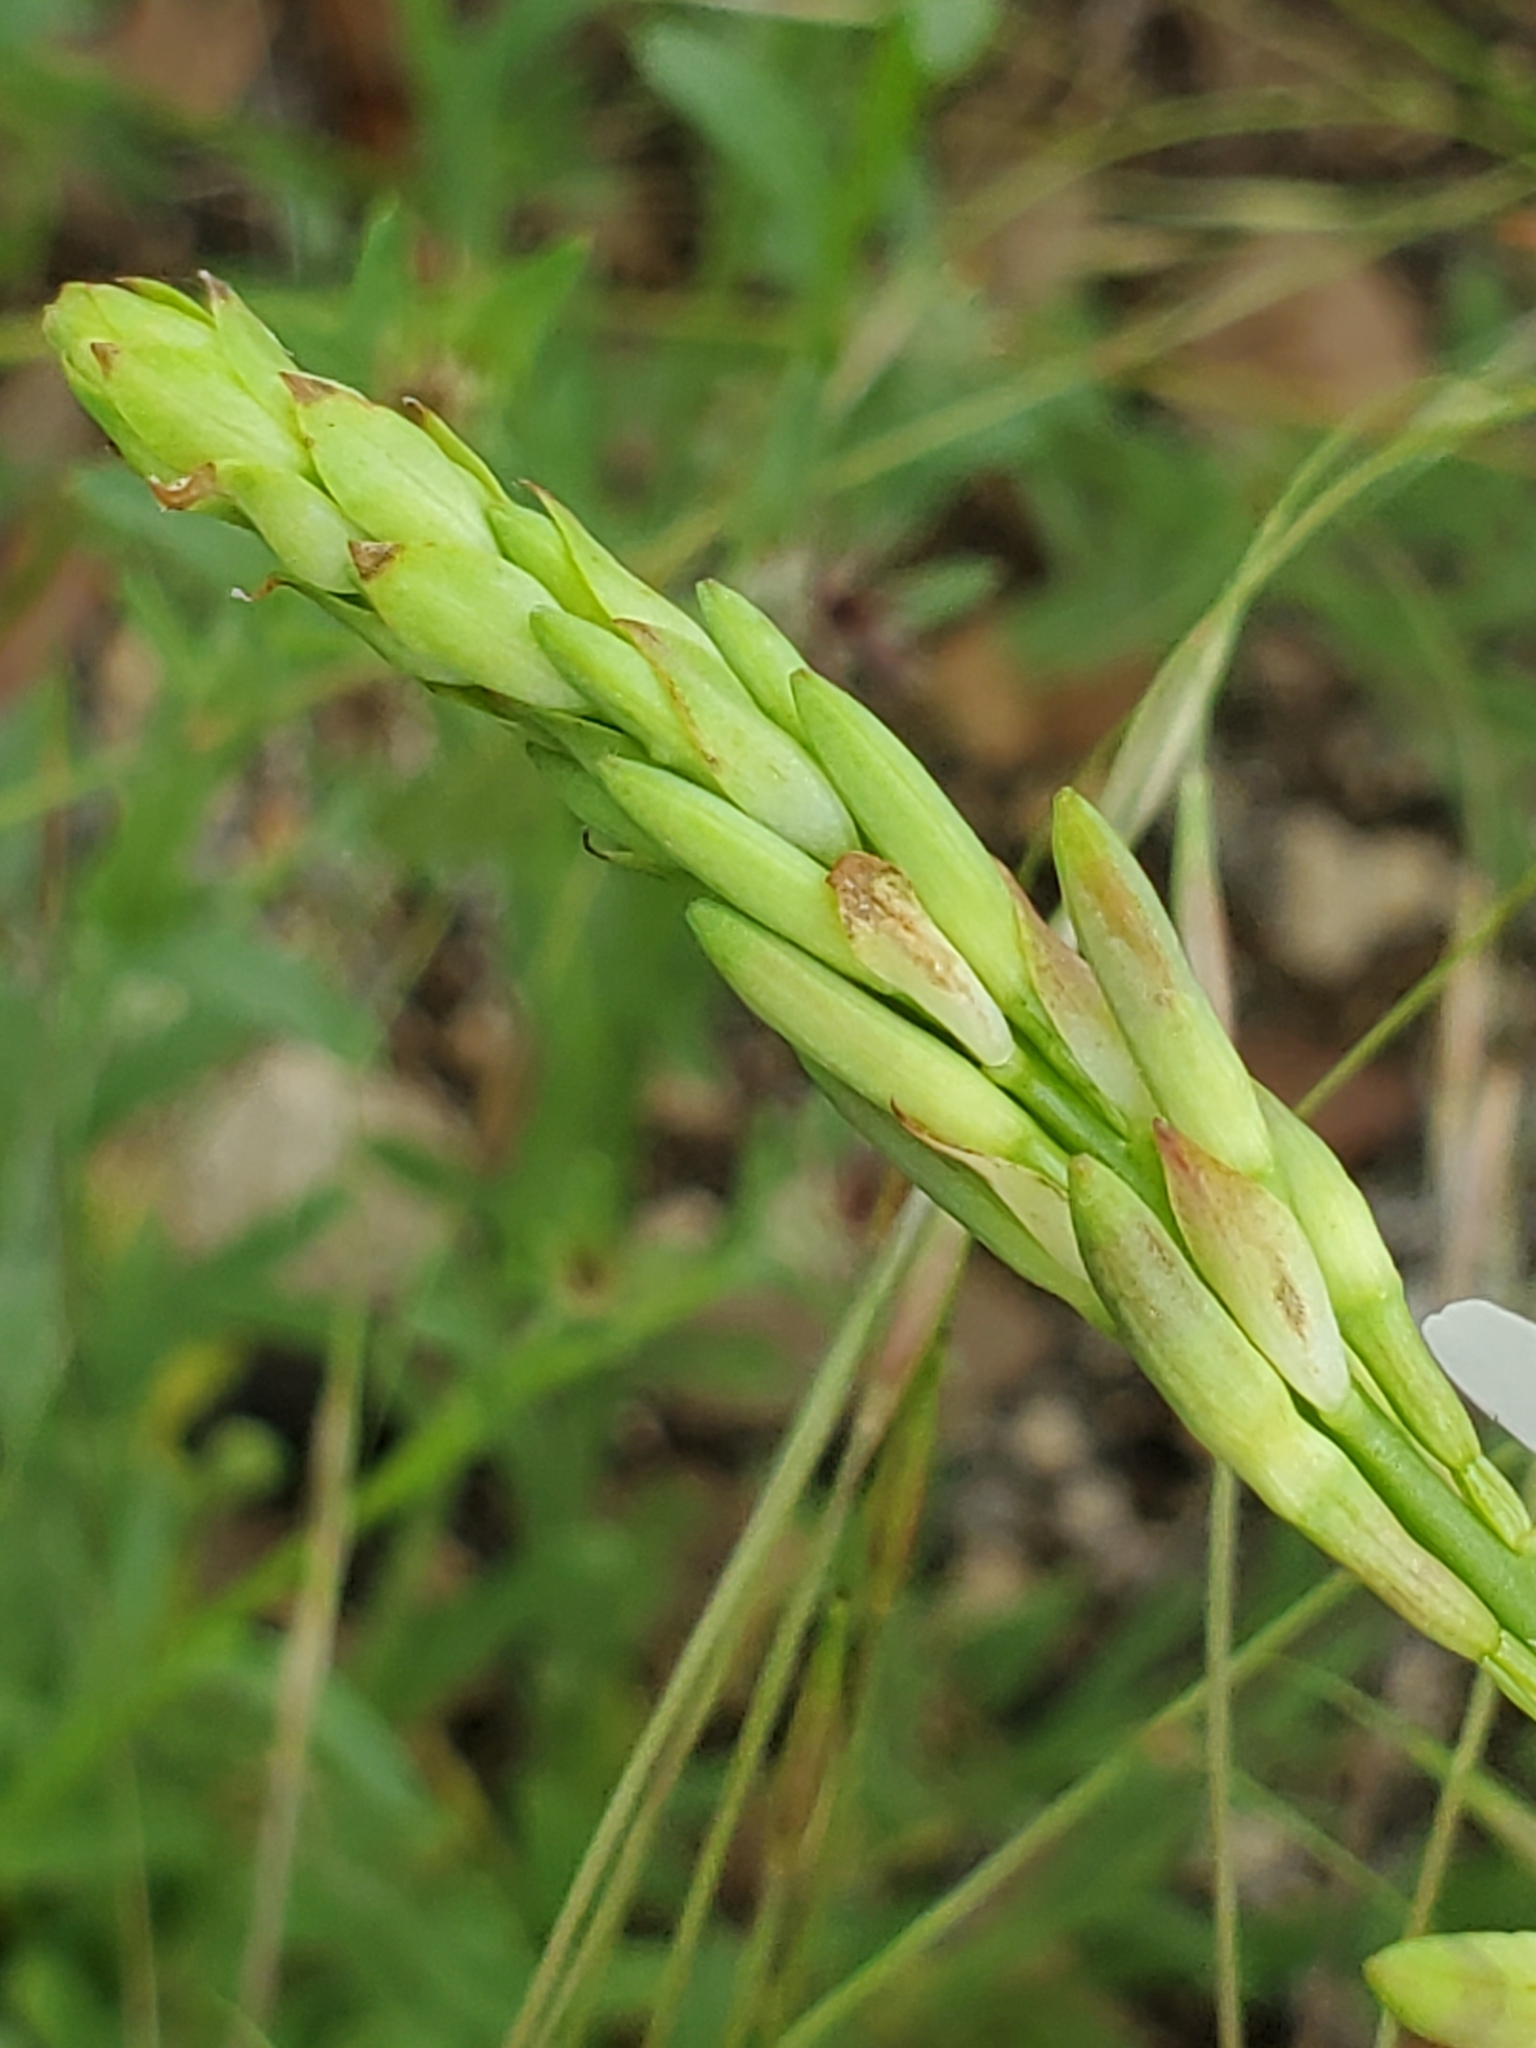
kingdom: Plantae
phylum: Tracheophyta
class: Magnoliopsida
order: Myrtales
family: Onagraceae
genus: Oenothera
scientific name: Oenothera suffulta
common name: Kisses
